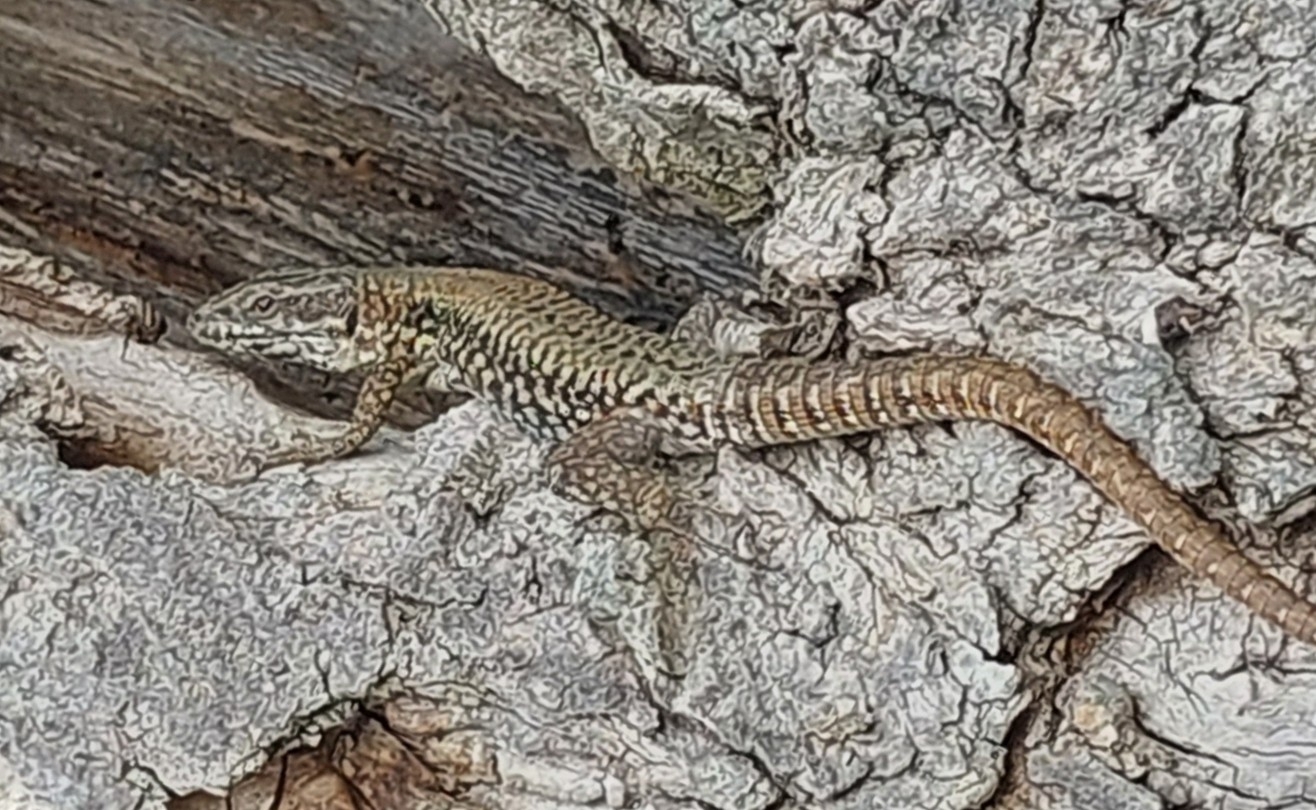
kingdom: Animalia
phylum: Chordata
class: Squamata
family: Lacertidae
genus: Podarcis
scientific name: Podarcis muralis
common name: Common wall lizard
